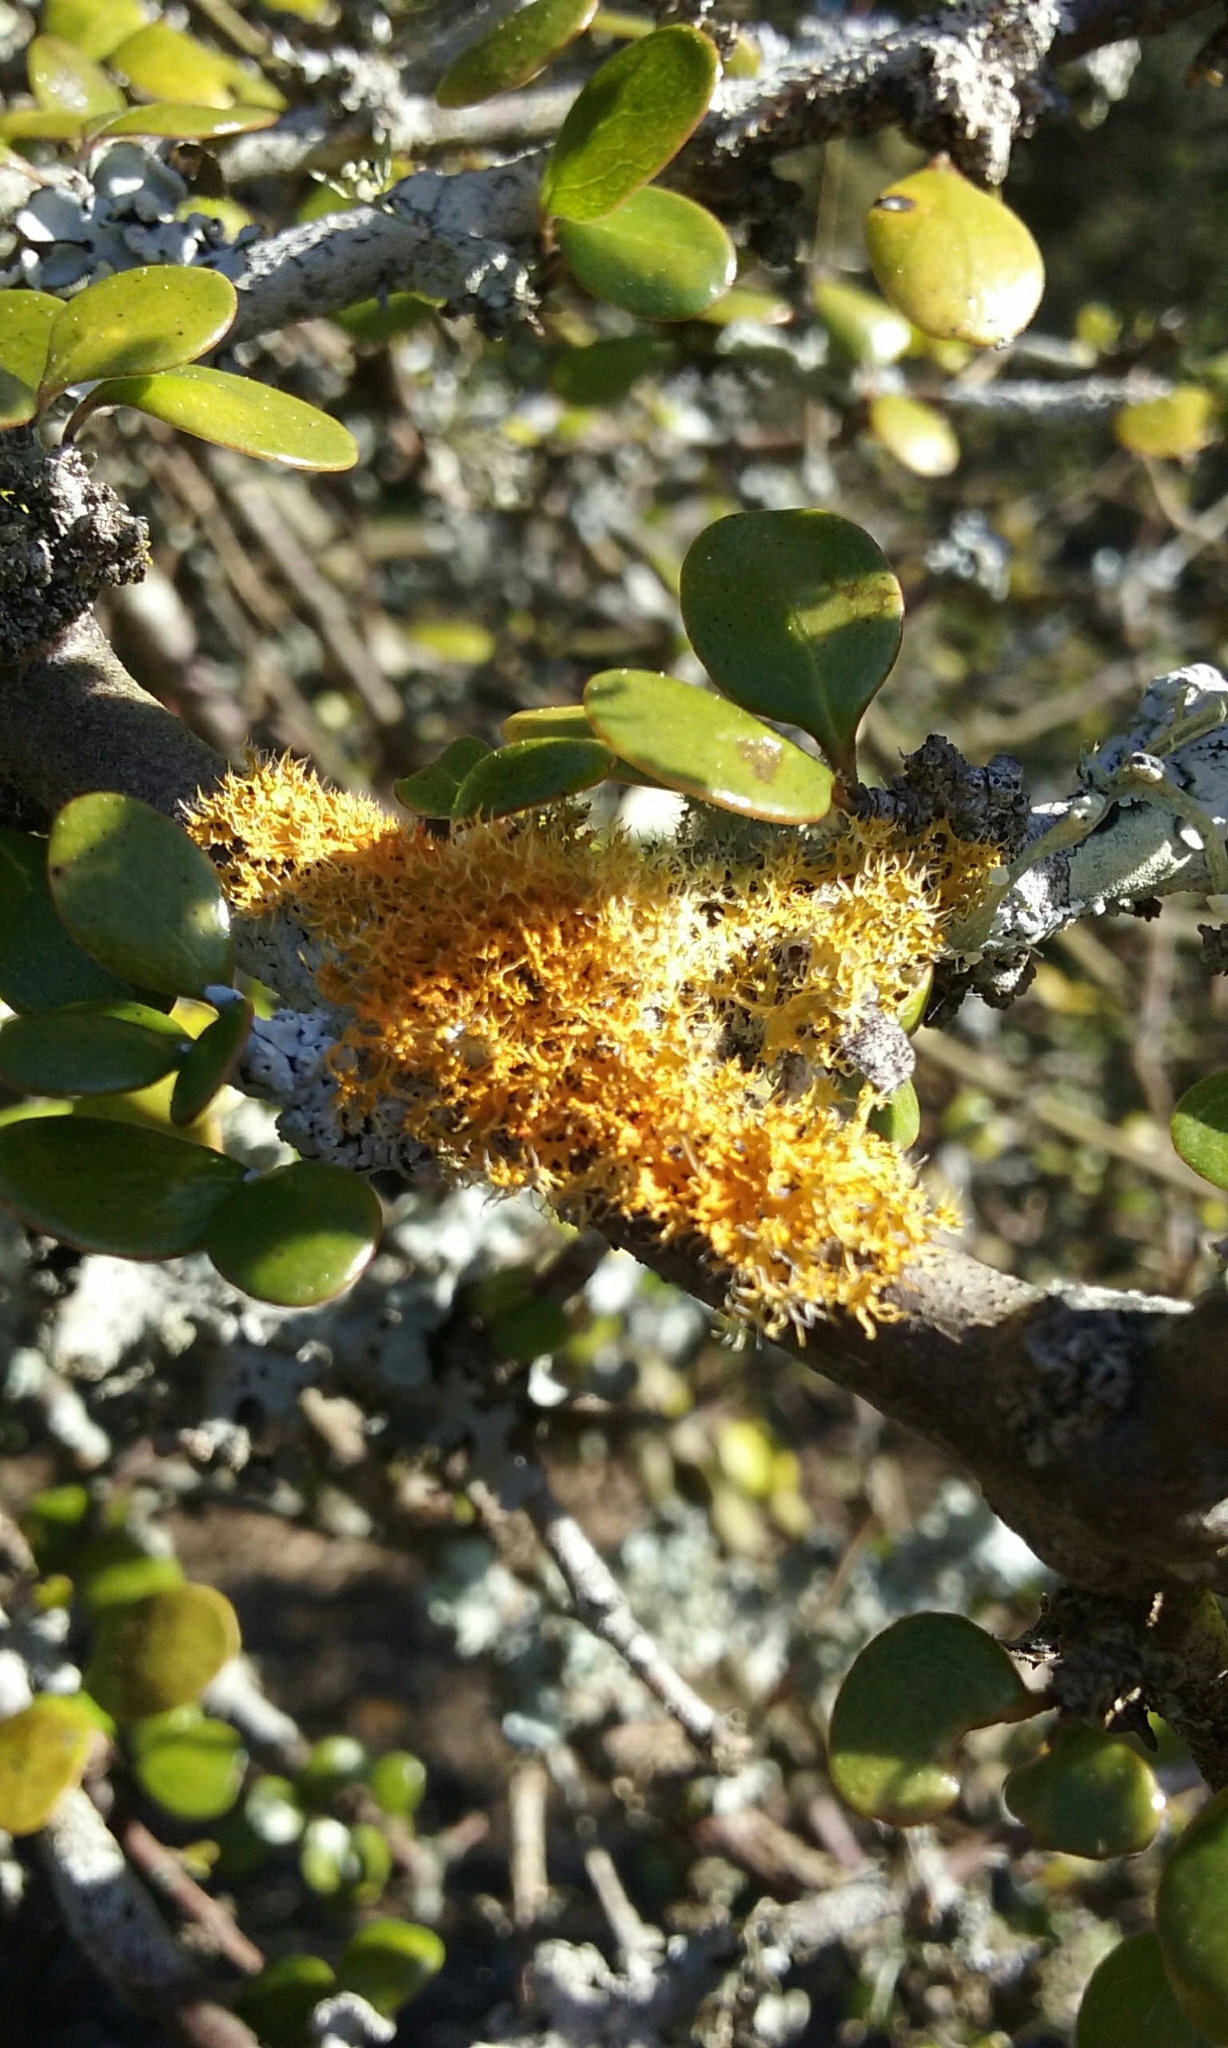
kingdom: Fungi
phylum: Ascomycota
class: Lecanoromycetes
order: Teloschistales
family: Teloschistaceae
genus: Niorma
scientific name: Niorma chrysophthalma
